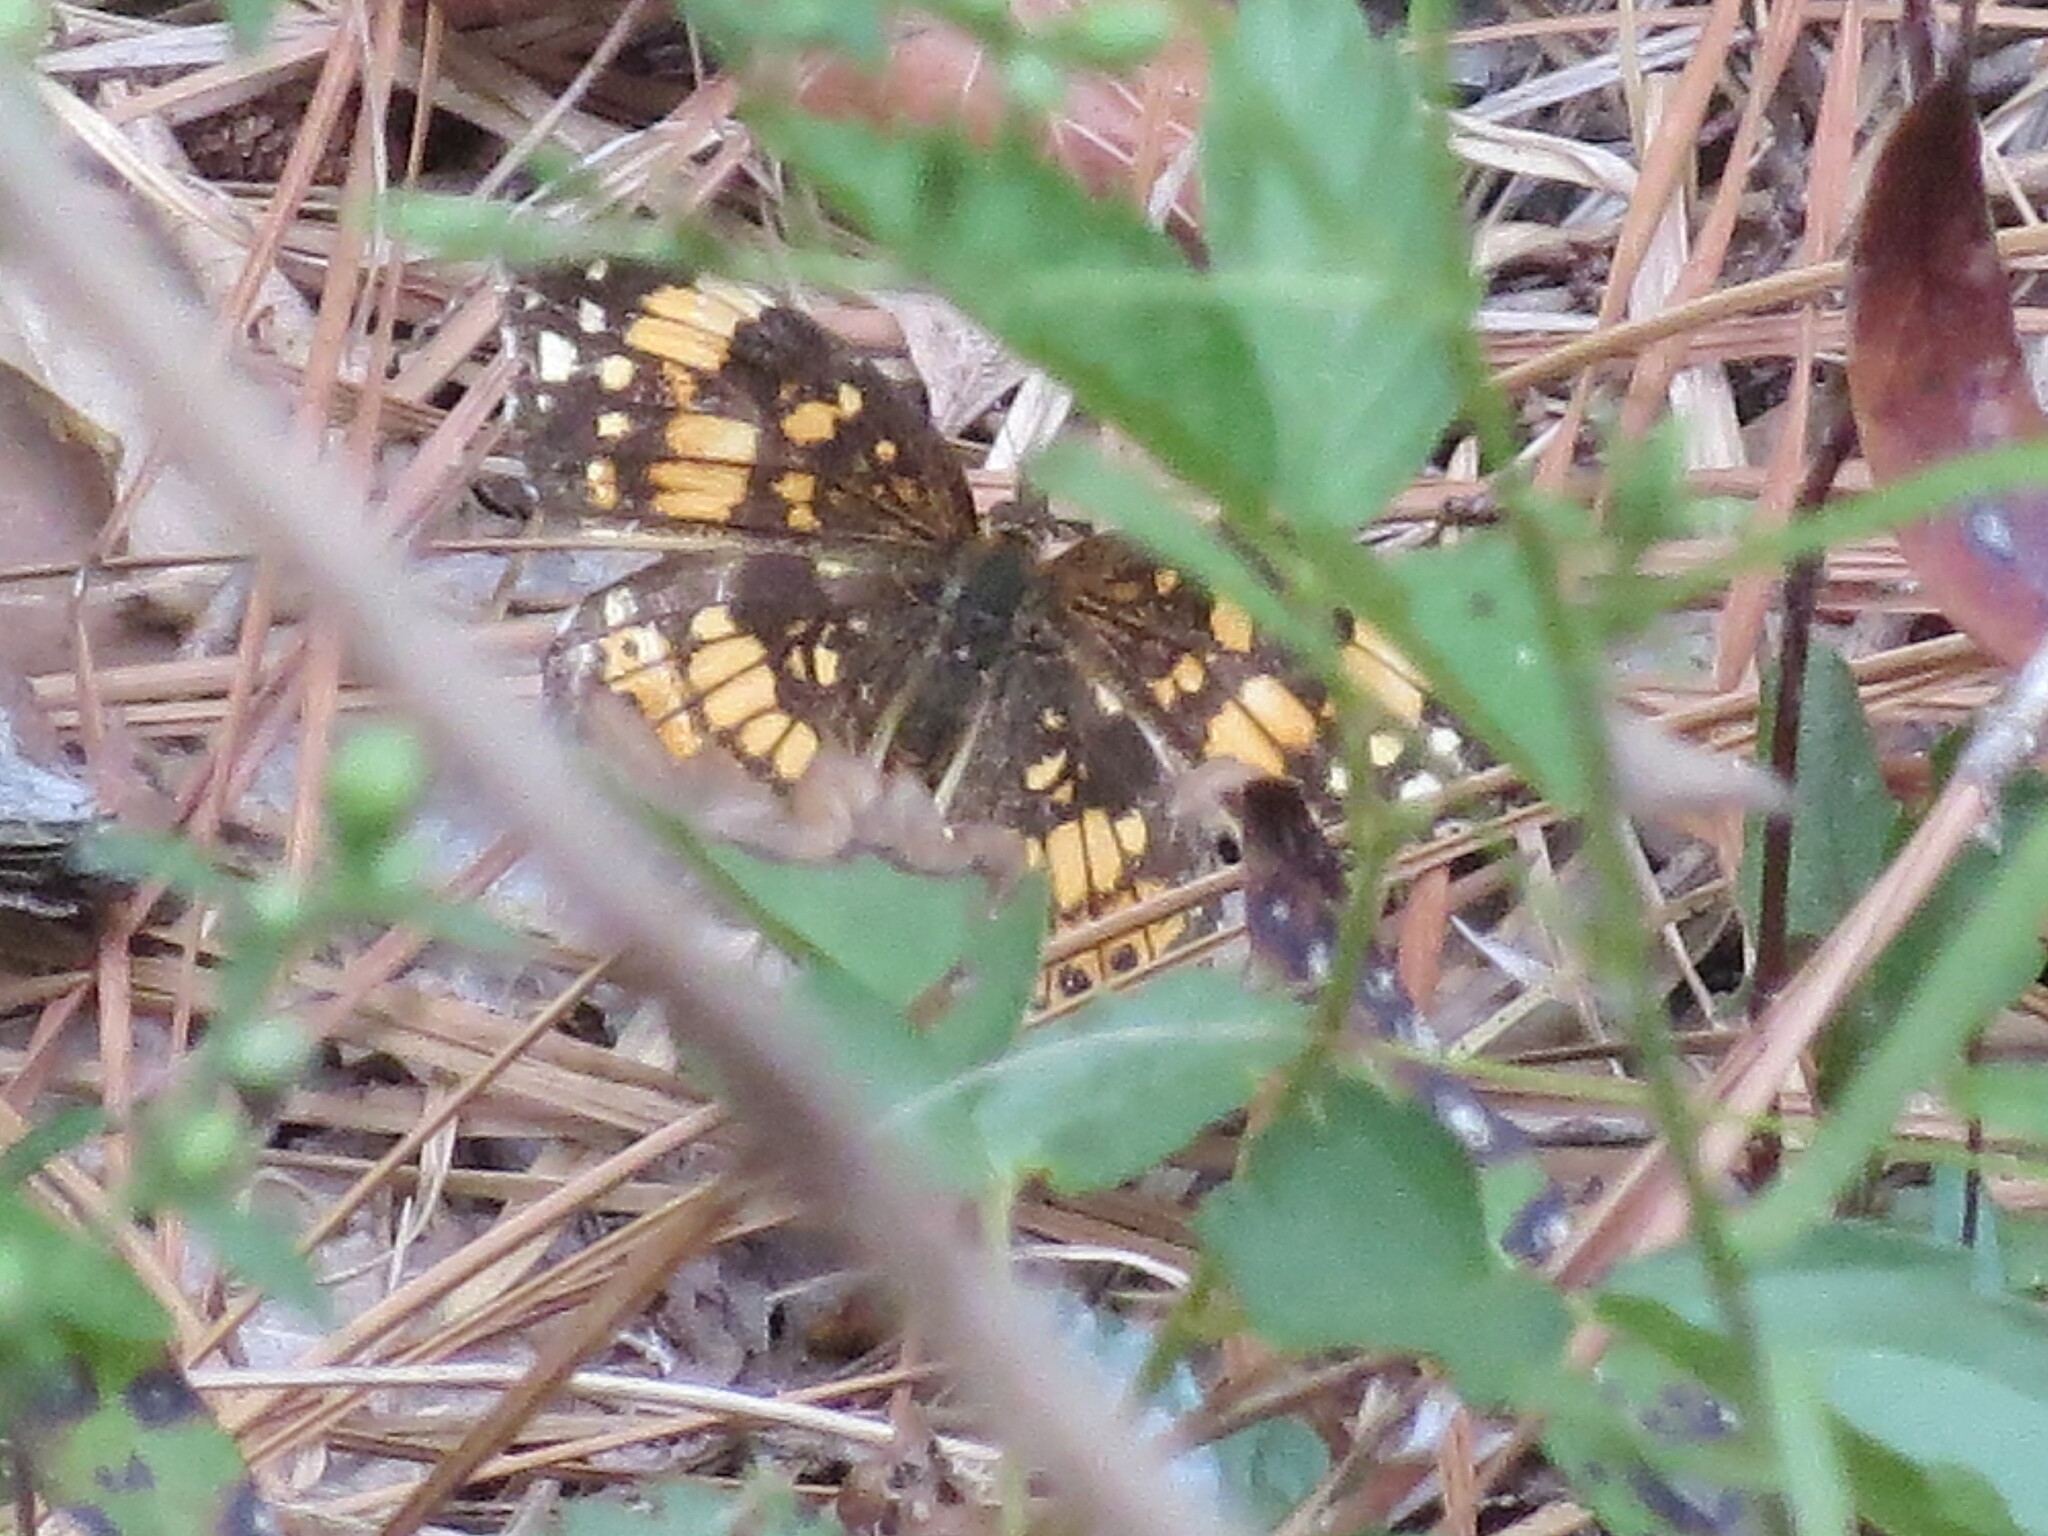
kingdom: Animalia
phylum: Arthropoda
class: Insecta
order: Lepidoptera
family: Nymphalidae
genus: Chlosyne
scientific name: Chlosyne nycteis
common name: Silvery checkerspot
